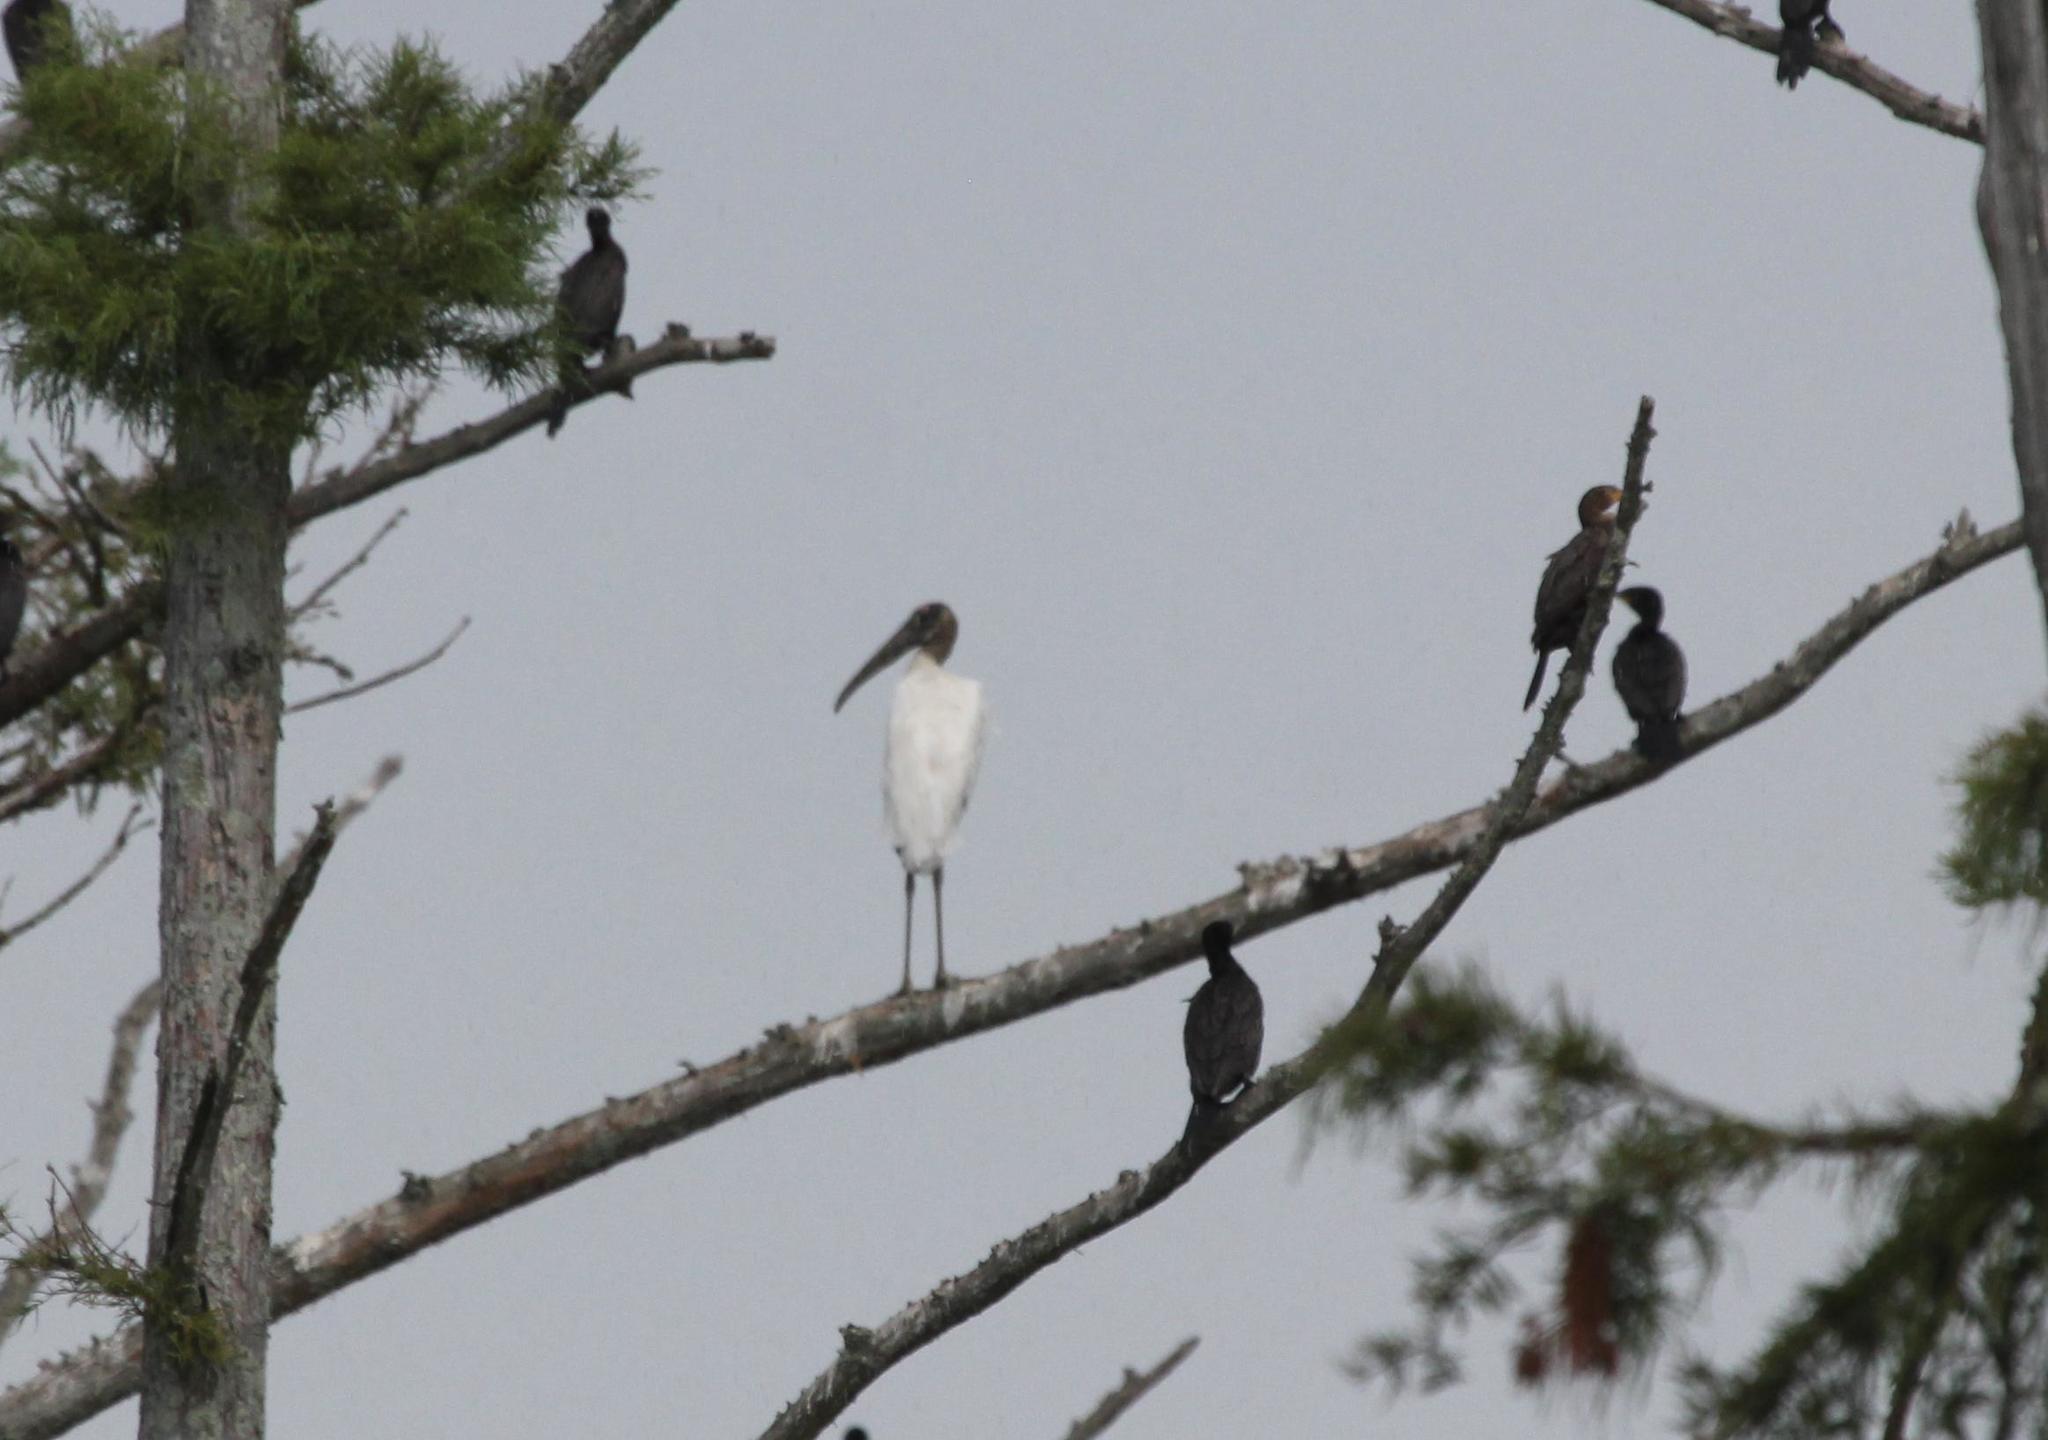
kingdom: Animalia
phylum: Chordata
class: Aves
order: Ciconiiformes
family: Ciconiidae
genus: Mycteria
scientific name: Mycteria americana
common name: Wood stork
